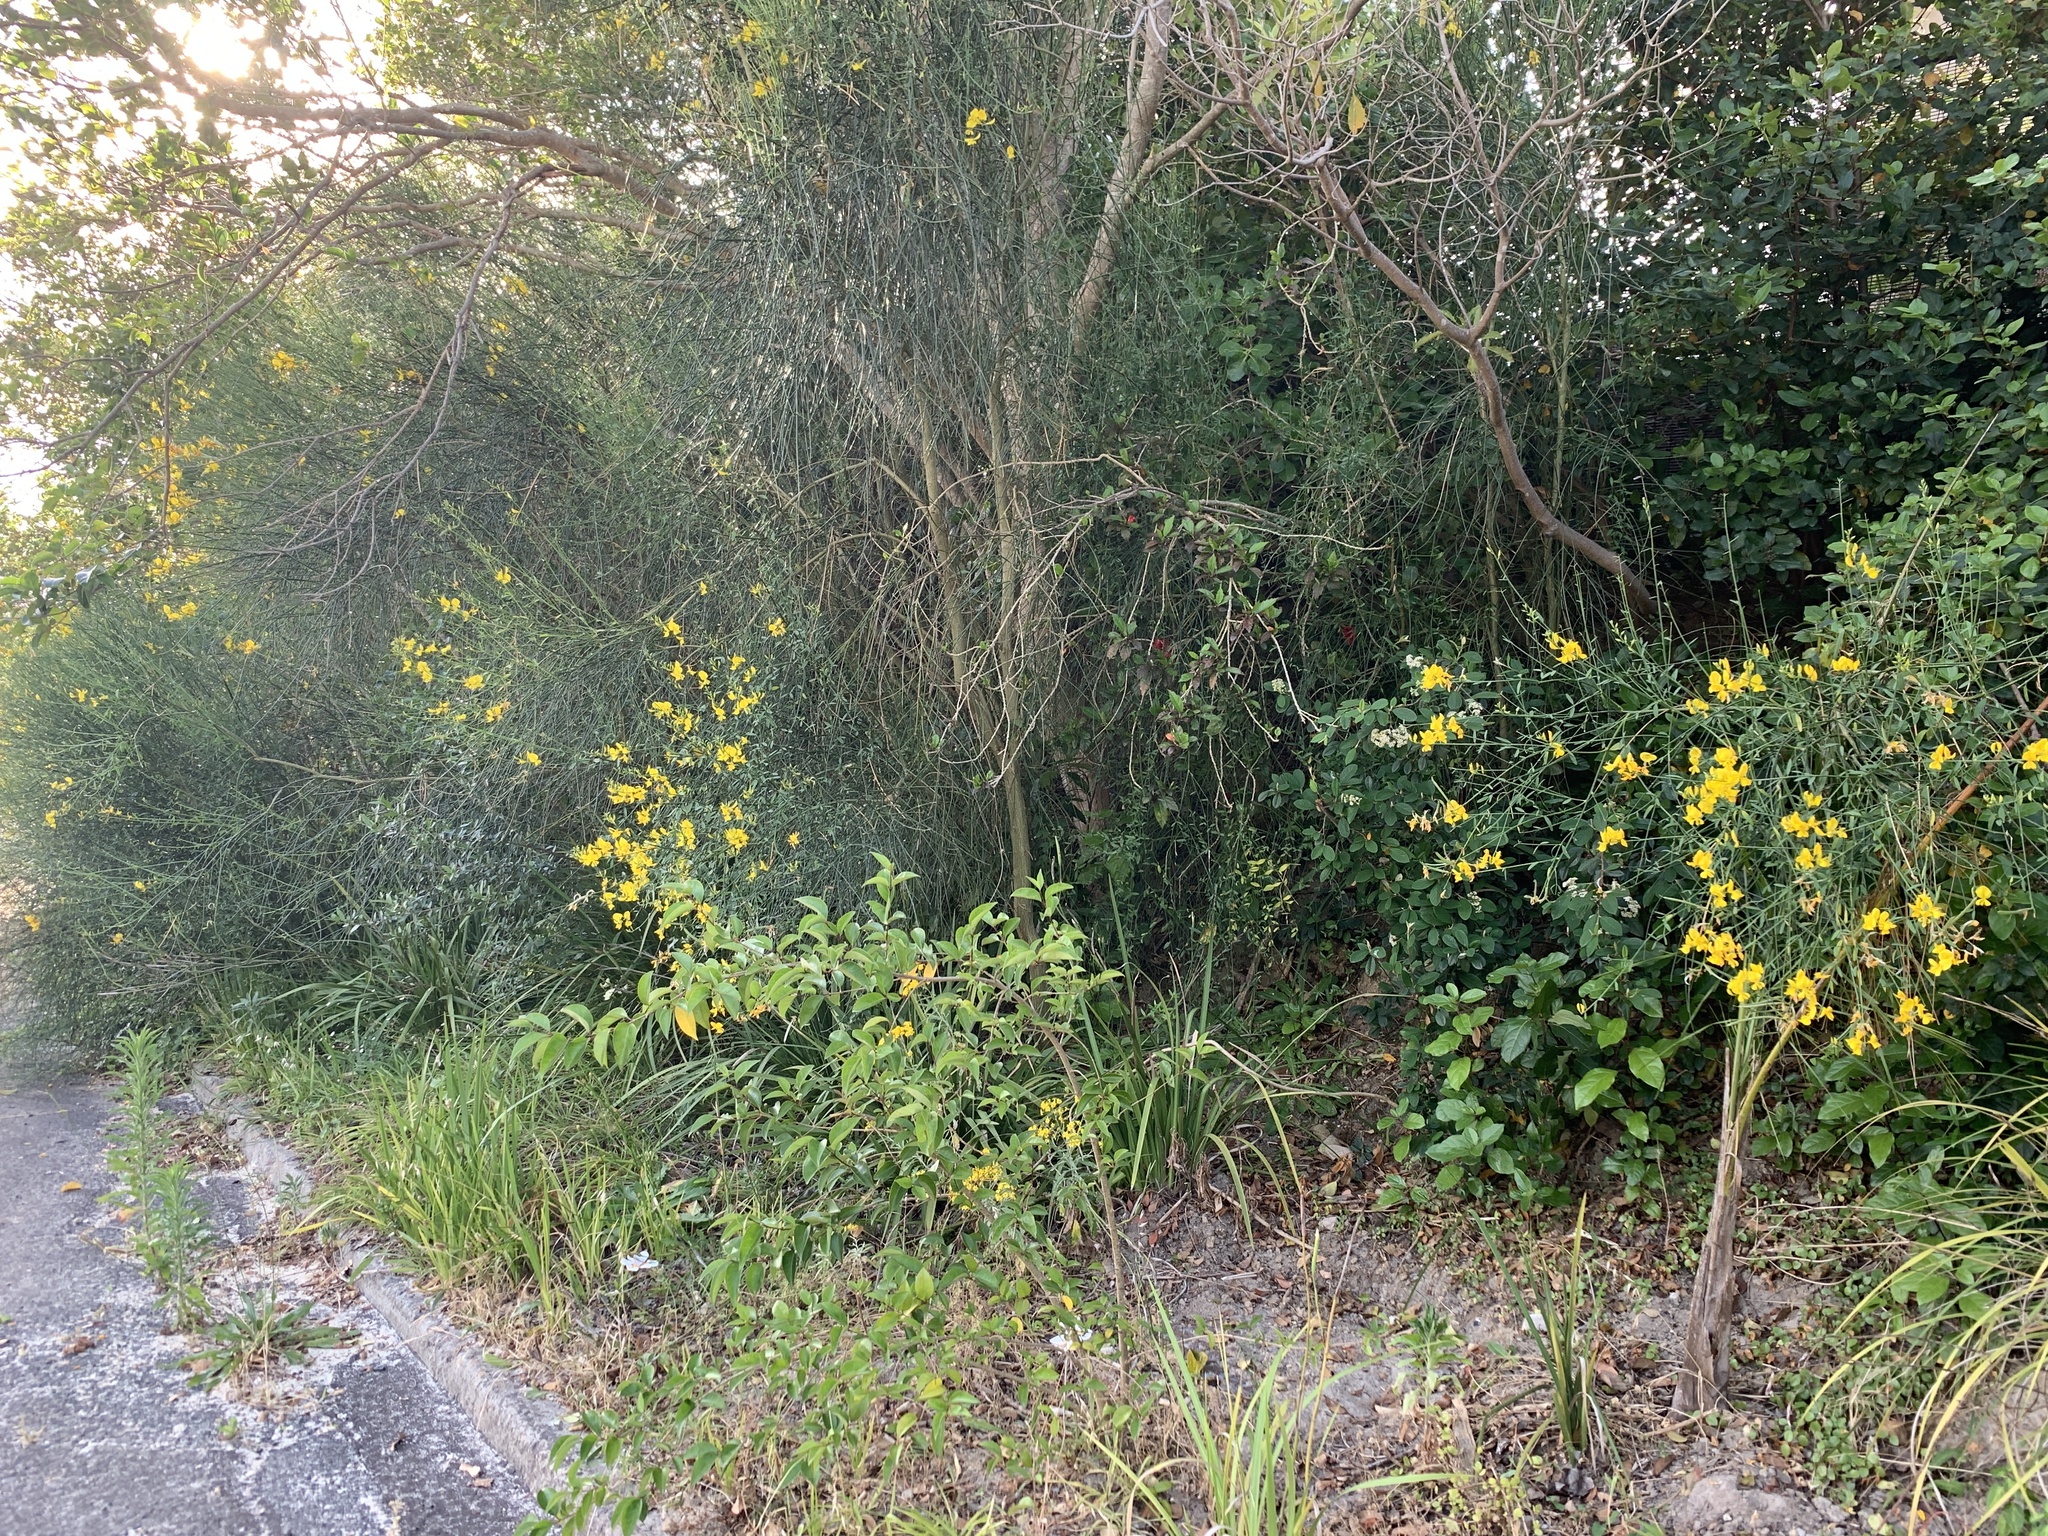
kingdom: Plantae
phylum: Tracheophyta
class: Magnoliopsida
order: Fabales
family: Fabaceae
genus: Spartium
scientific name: Spartium junceum
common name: Spanish broom
